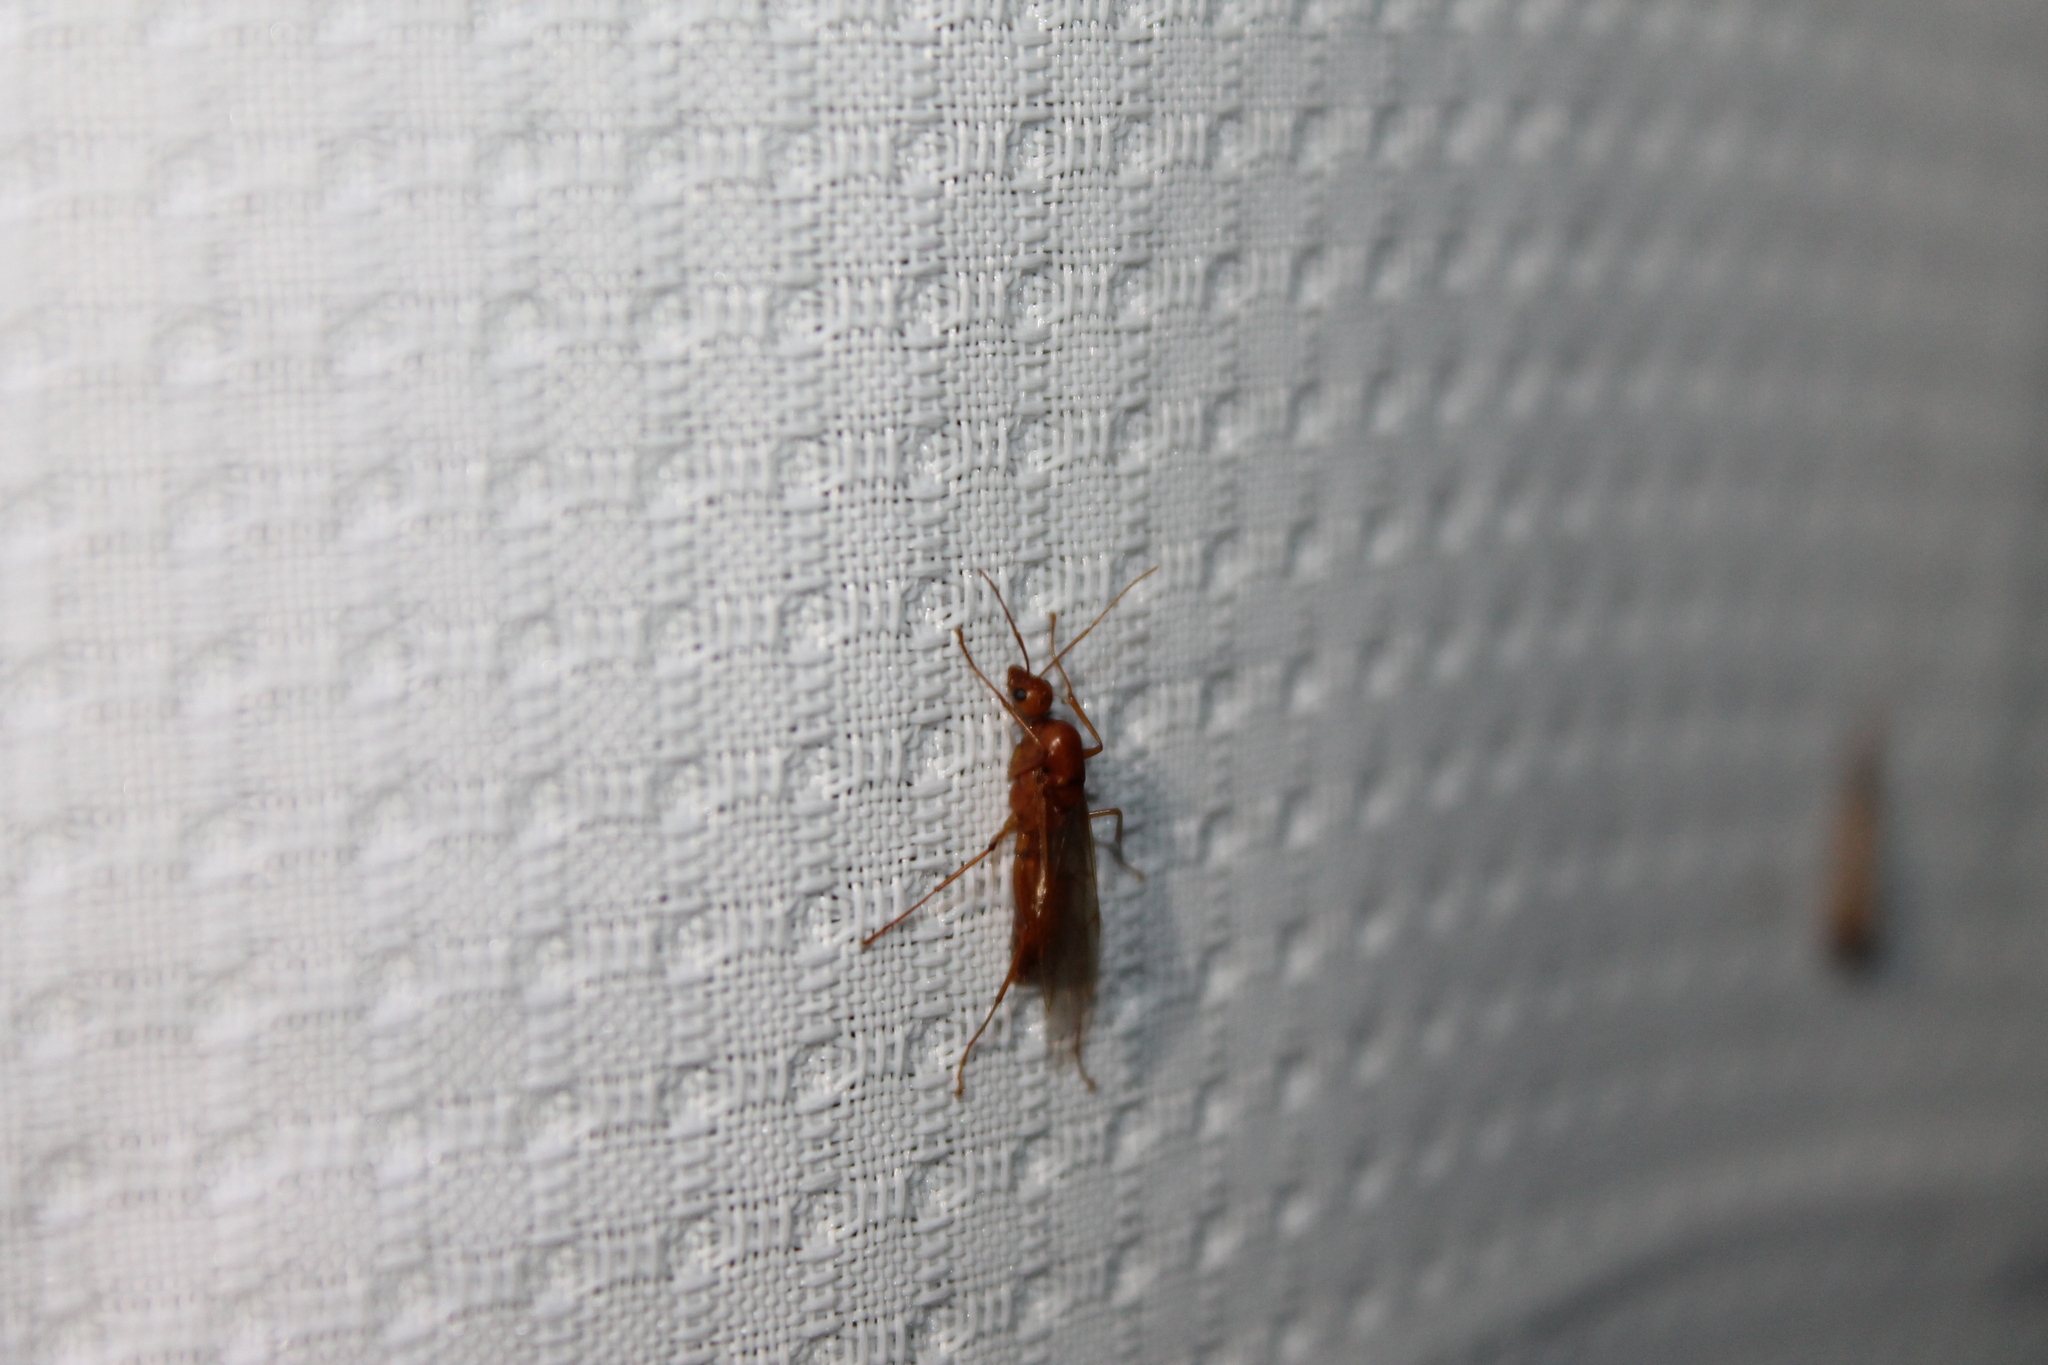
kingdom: Animalia
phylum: Arthropoda
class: Insecta
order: Hymenoptera
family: Formicidae
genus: Camponotus
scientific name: Camponotus castaneus
